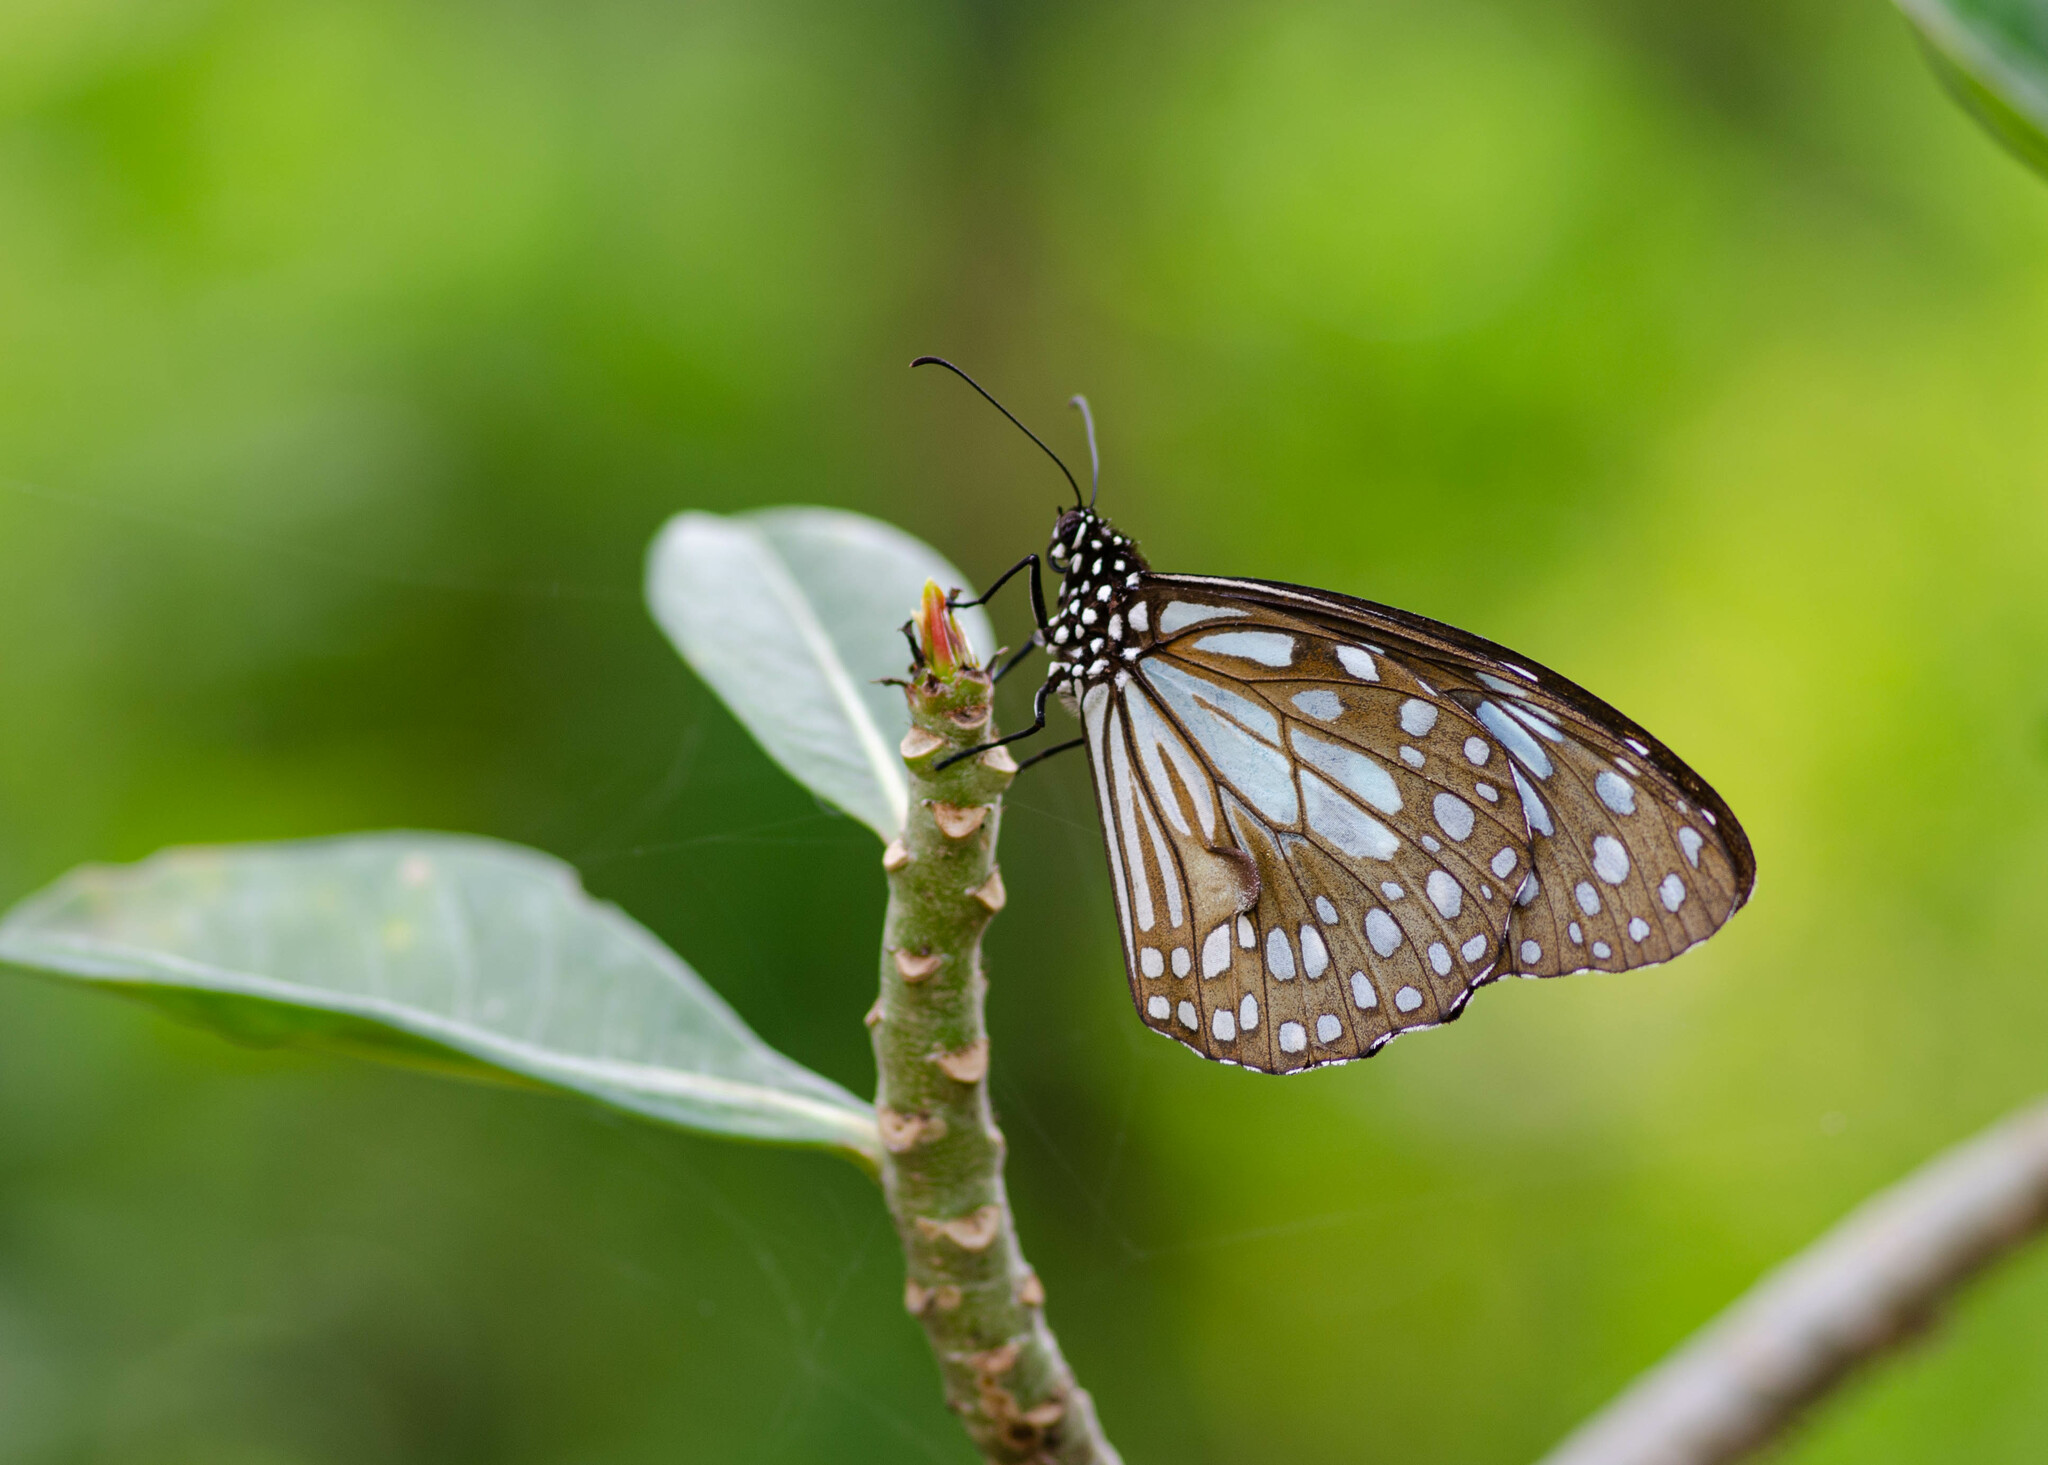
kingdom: Animalia
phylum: Arthropoda
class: Insecta
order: Lepidoptera
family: Nymphalidae
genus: Tirumala
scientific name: Tirumala limniace
